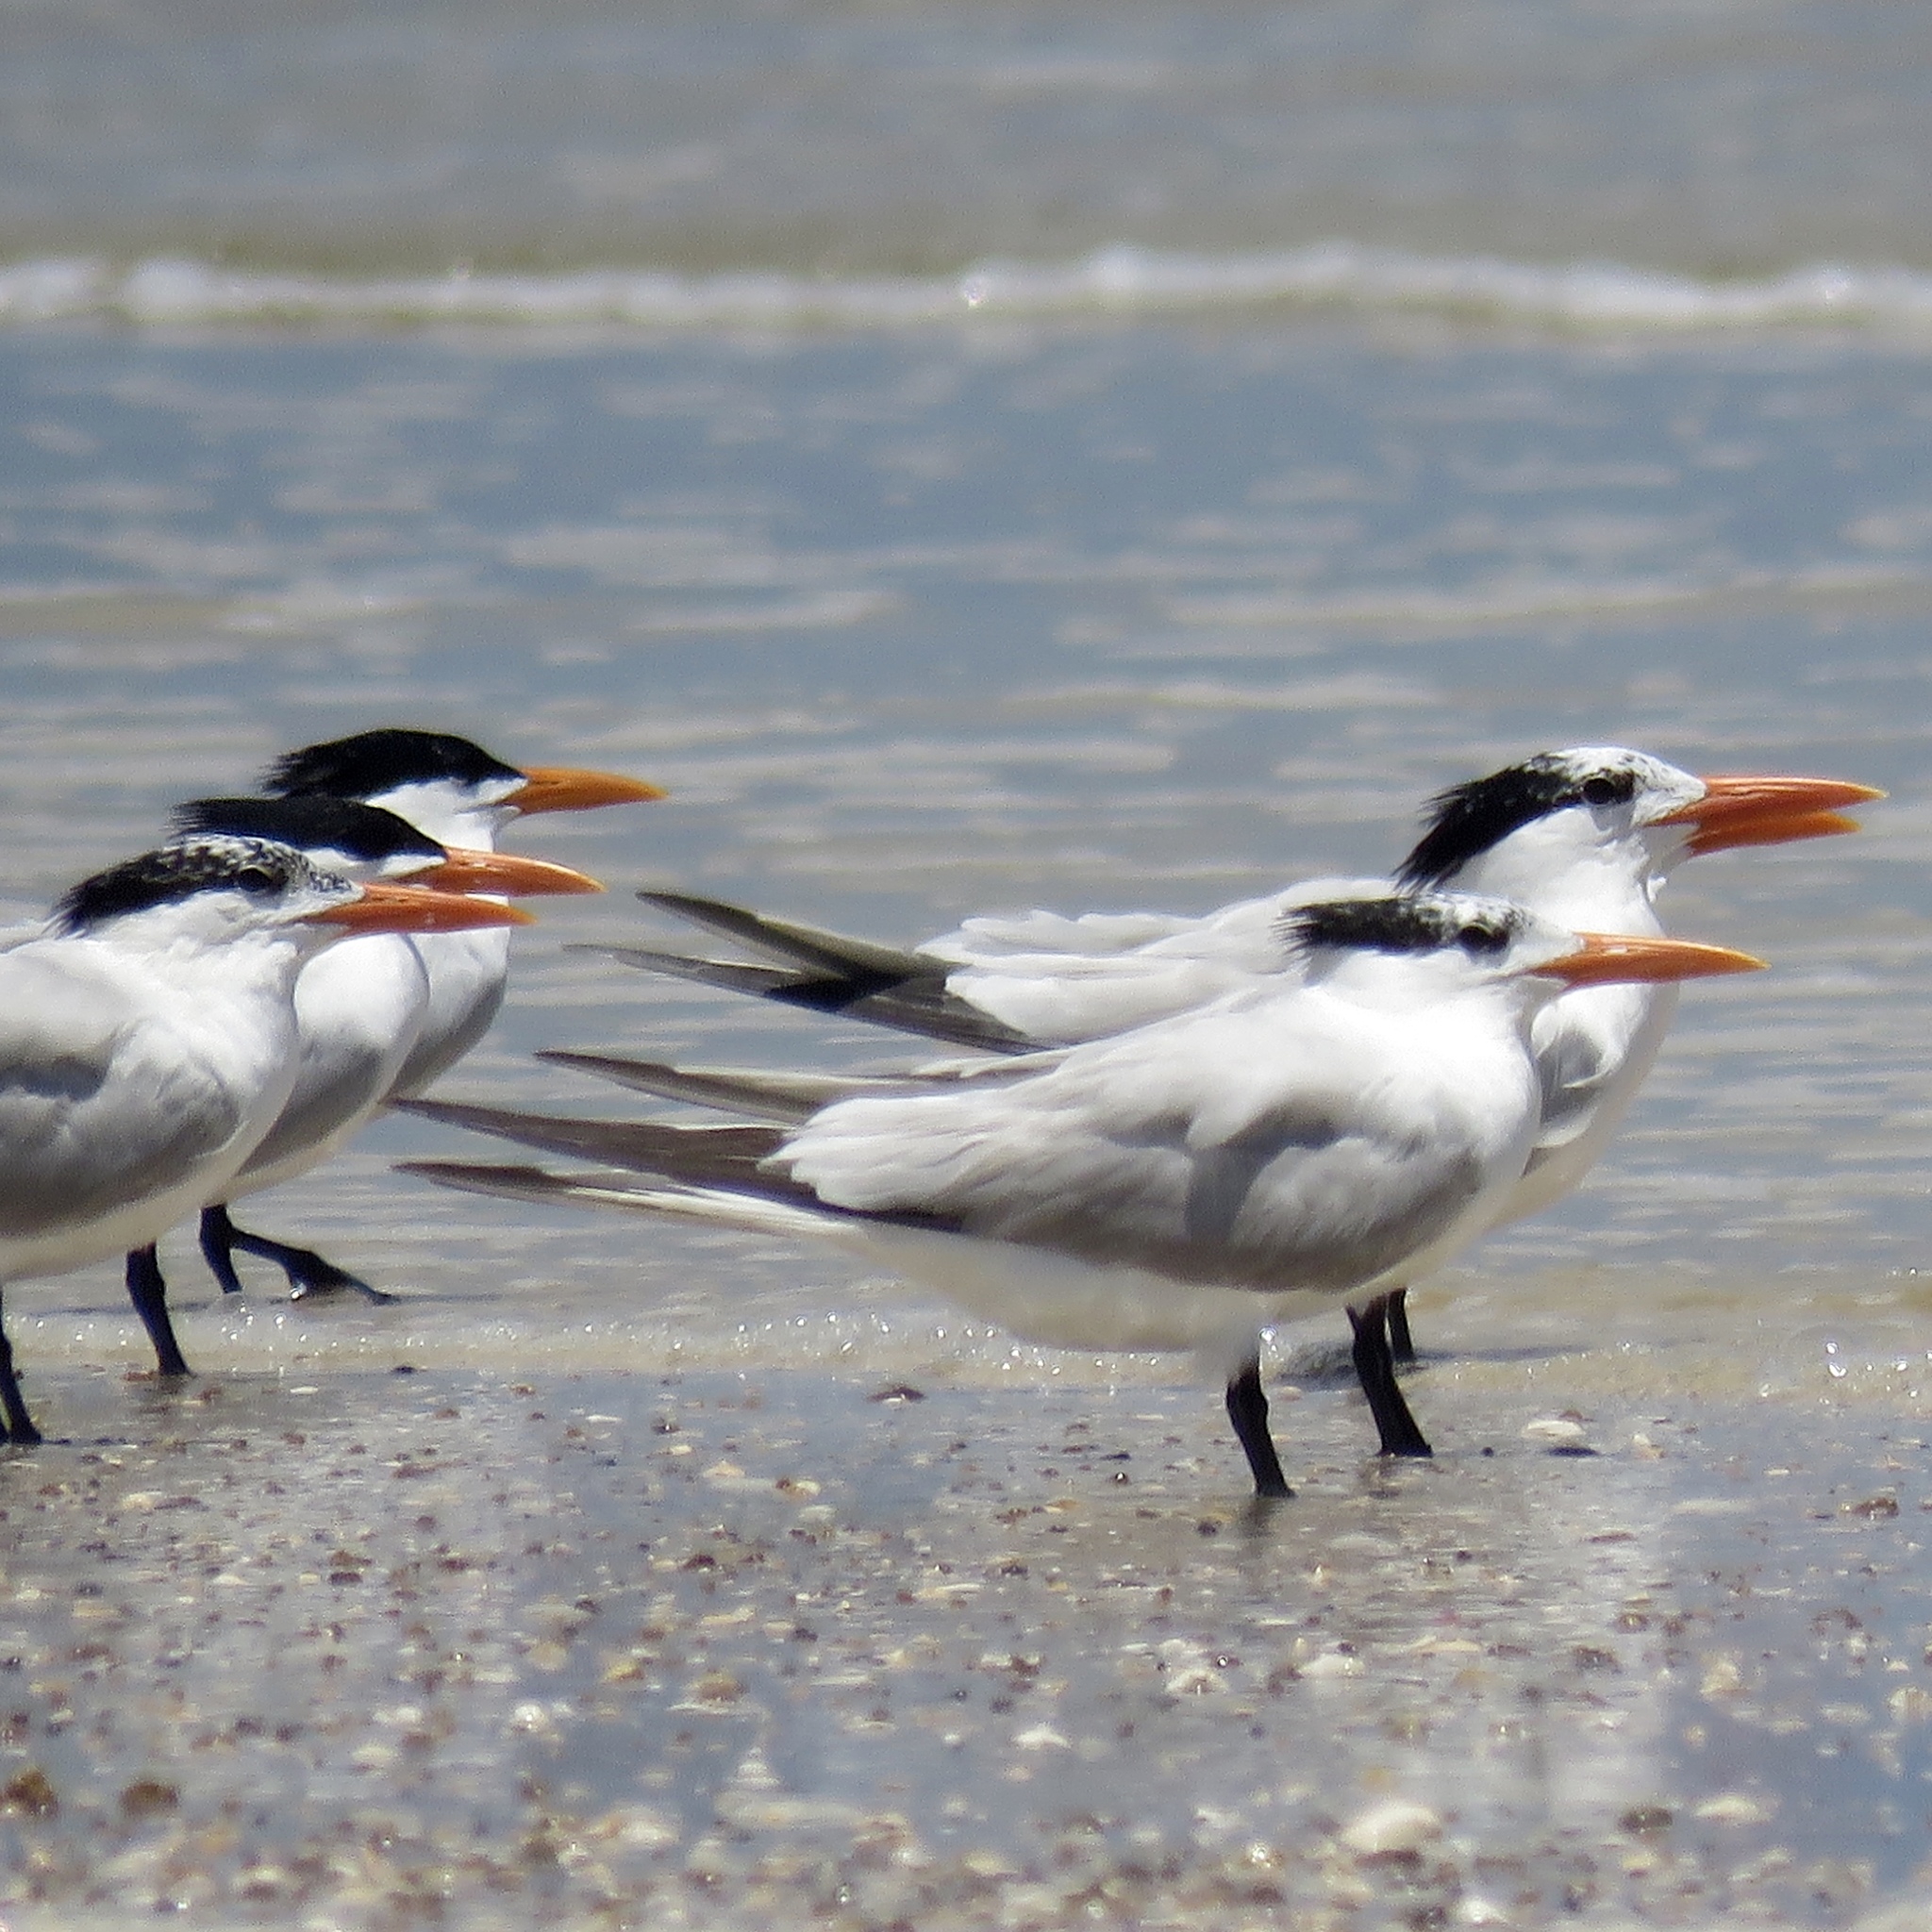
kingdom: Animalia
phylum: Chordata
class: Aves
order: Charadriiformes
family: Laridae
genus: Thalasseus
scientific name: Thalasseus maximus
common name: Royal tern
